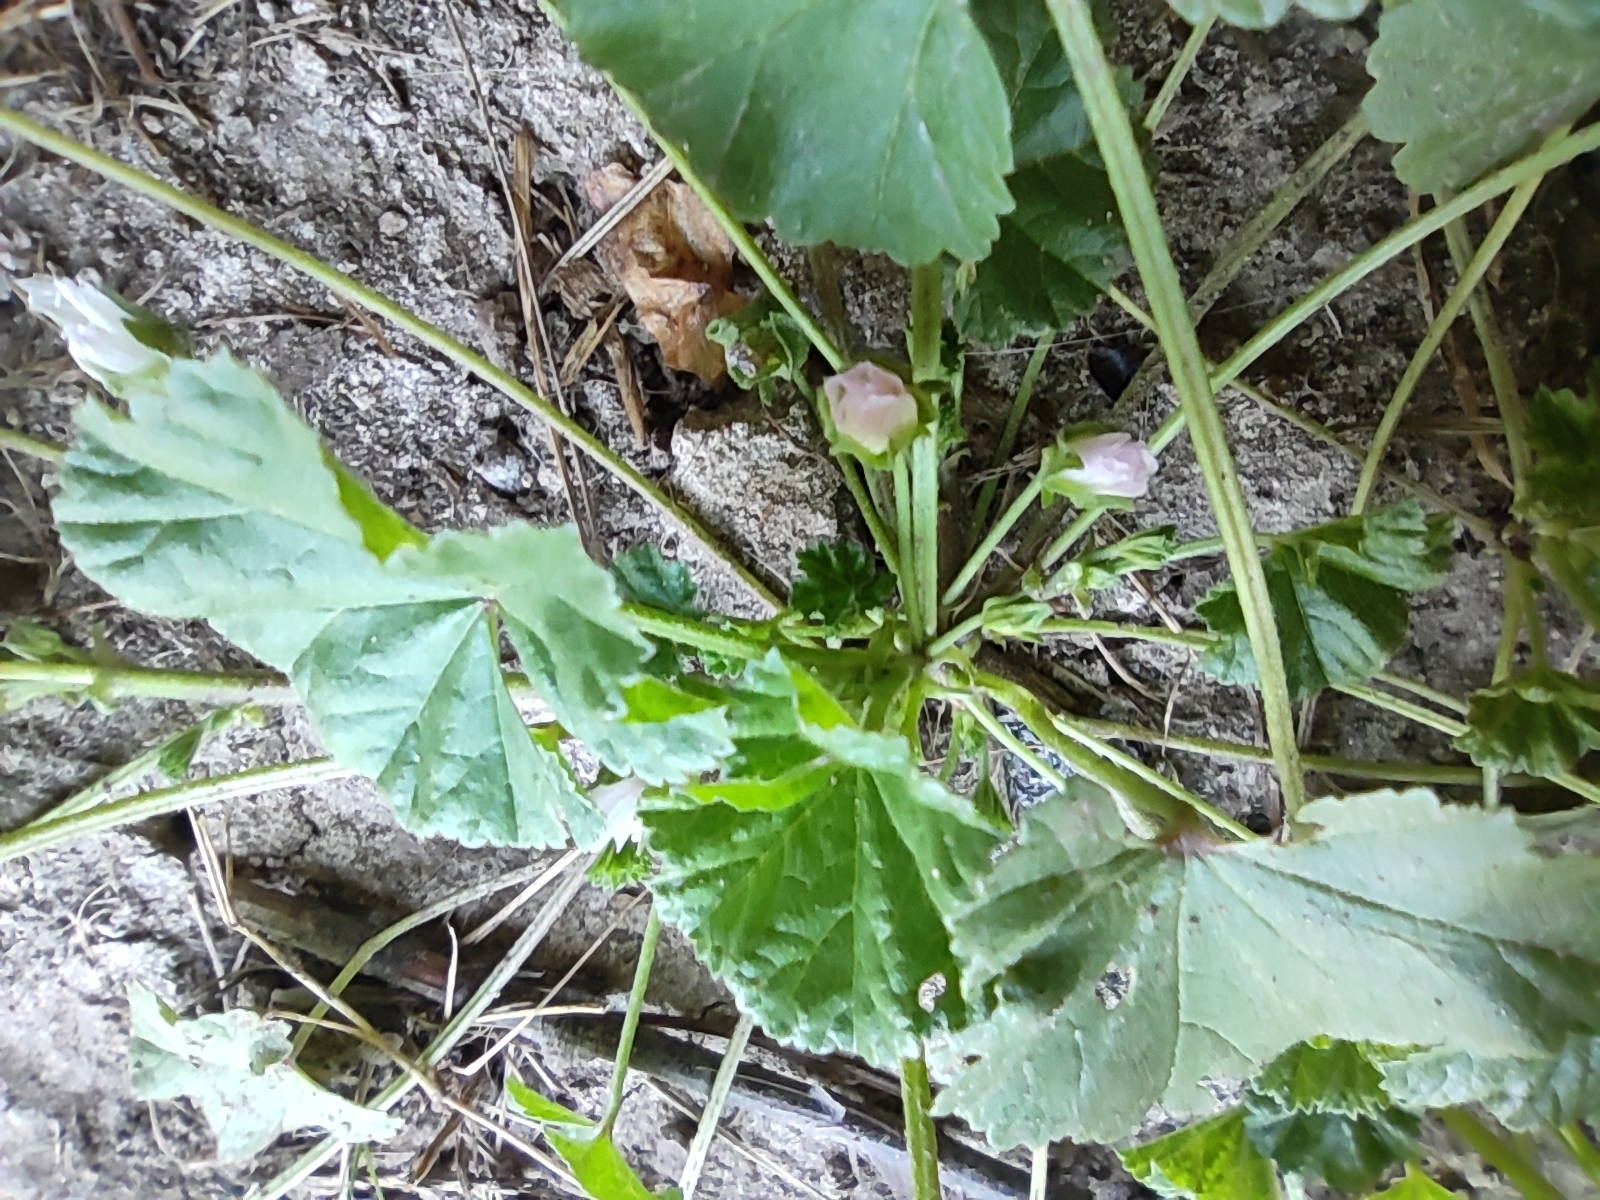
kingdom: Plantae
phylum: Tracheophyta
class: Magnoliopsida
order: Malvales
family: Malvaceae
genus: Malva
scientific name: Malva neglecta
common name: Common mallow
